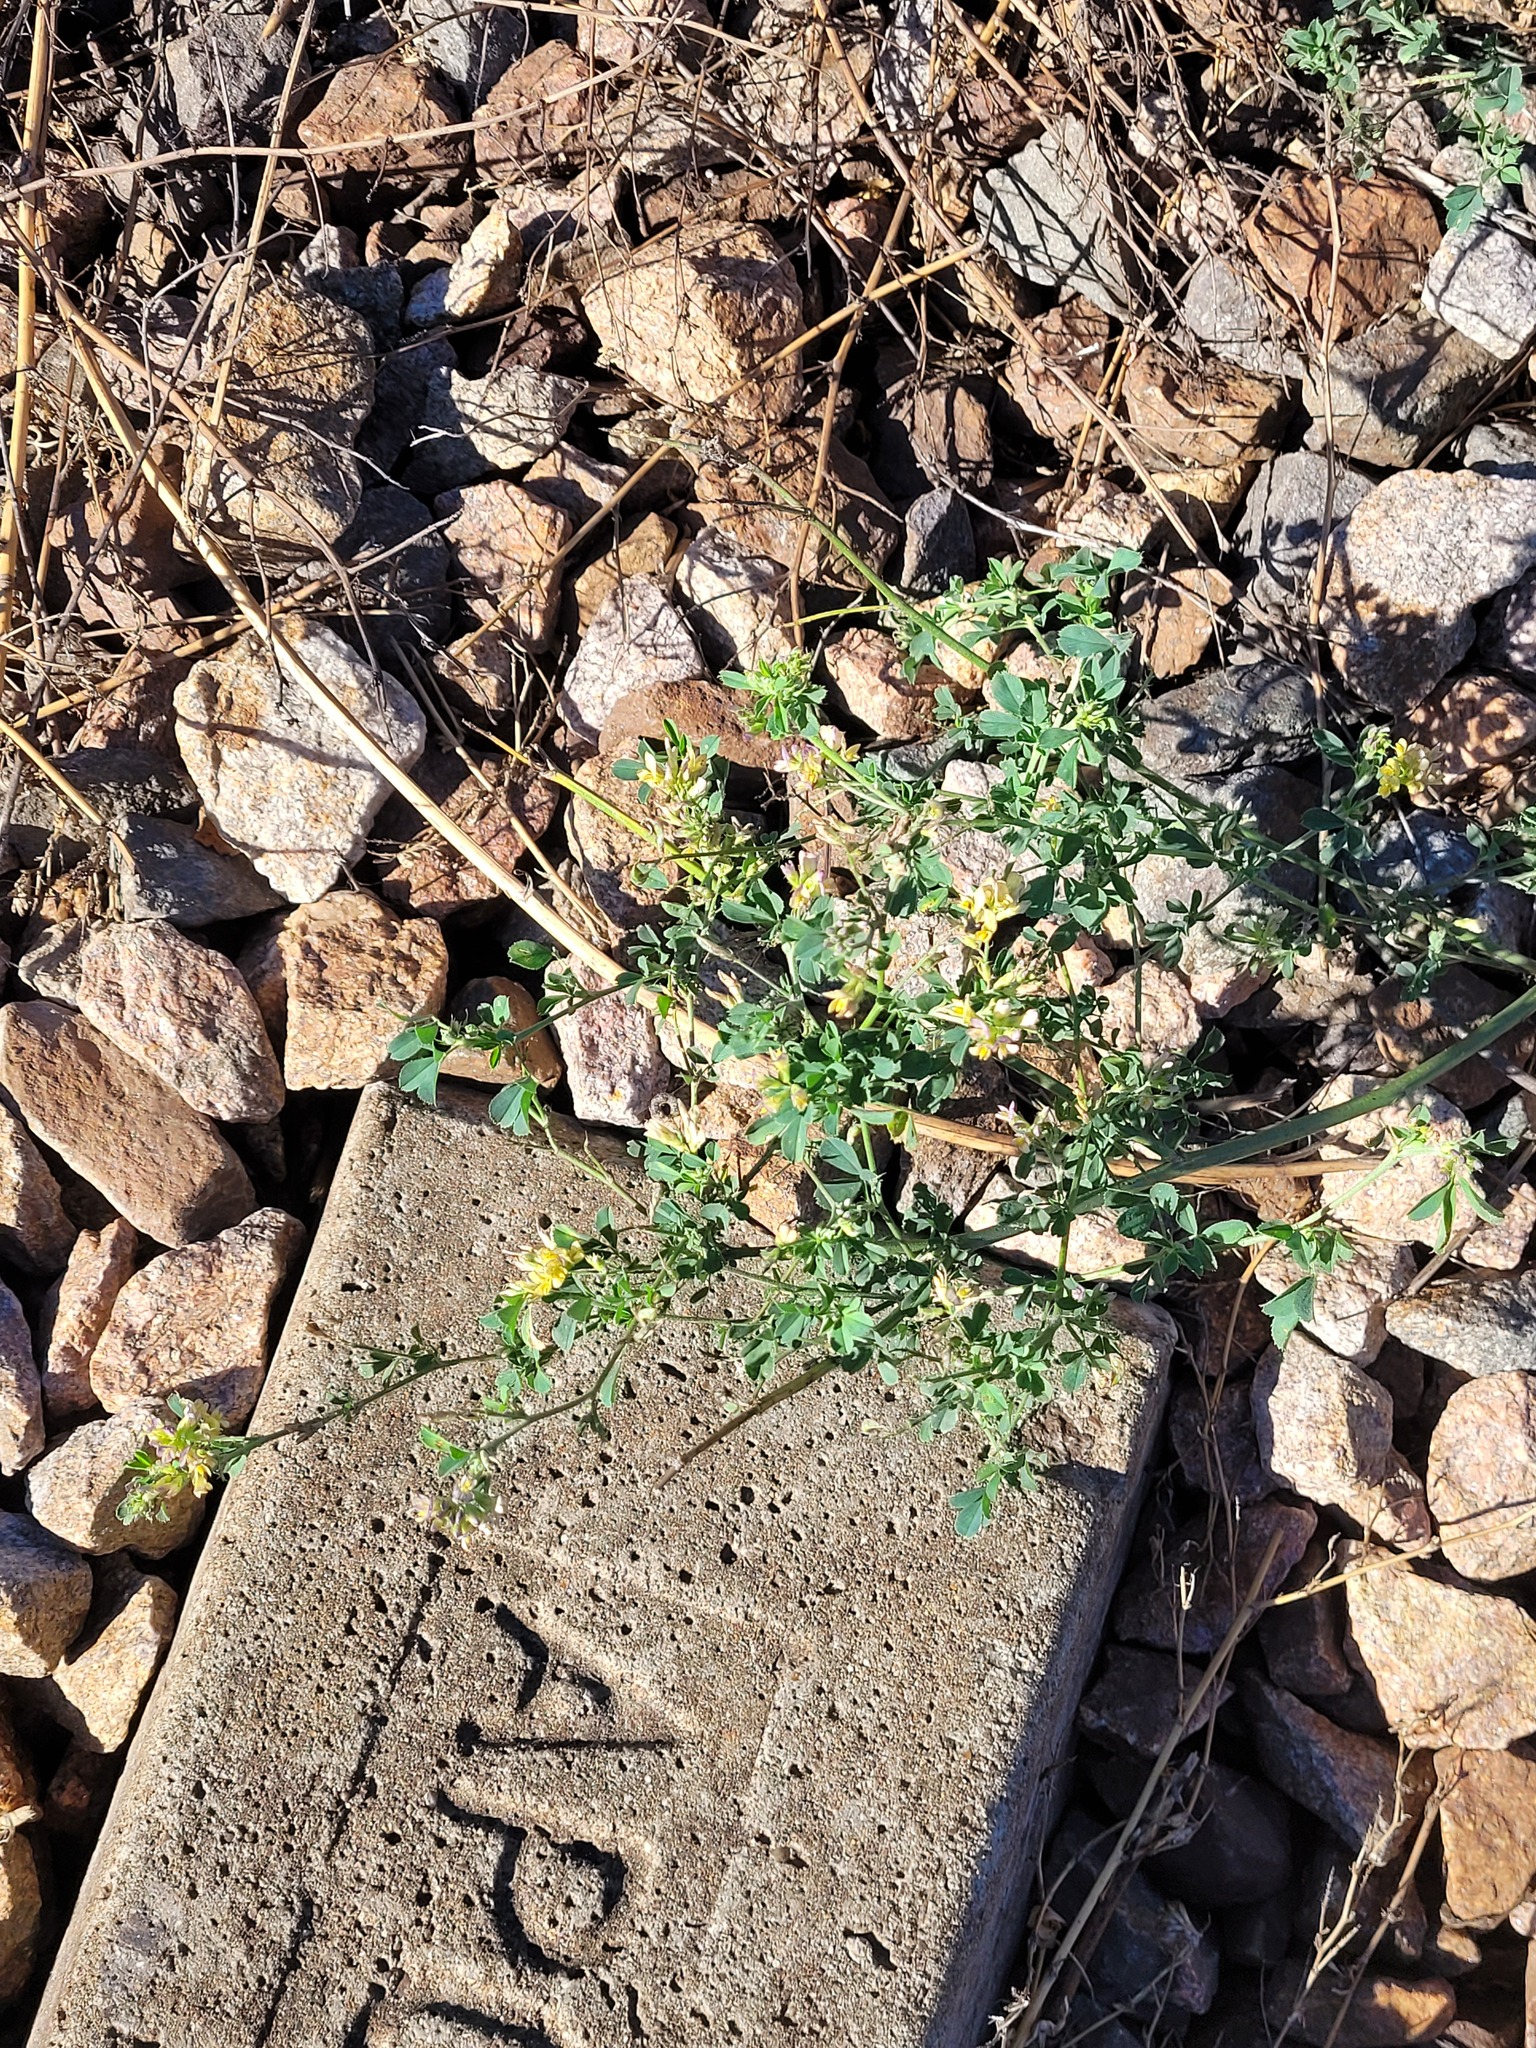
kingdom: Plantae
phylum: Tracheophyta
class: Magnoliopsida
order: Fabales
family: Fabaceae
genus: Medicago
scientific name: Medicago varia
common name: Sand lucerne
